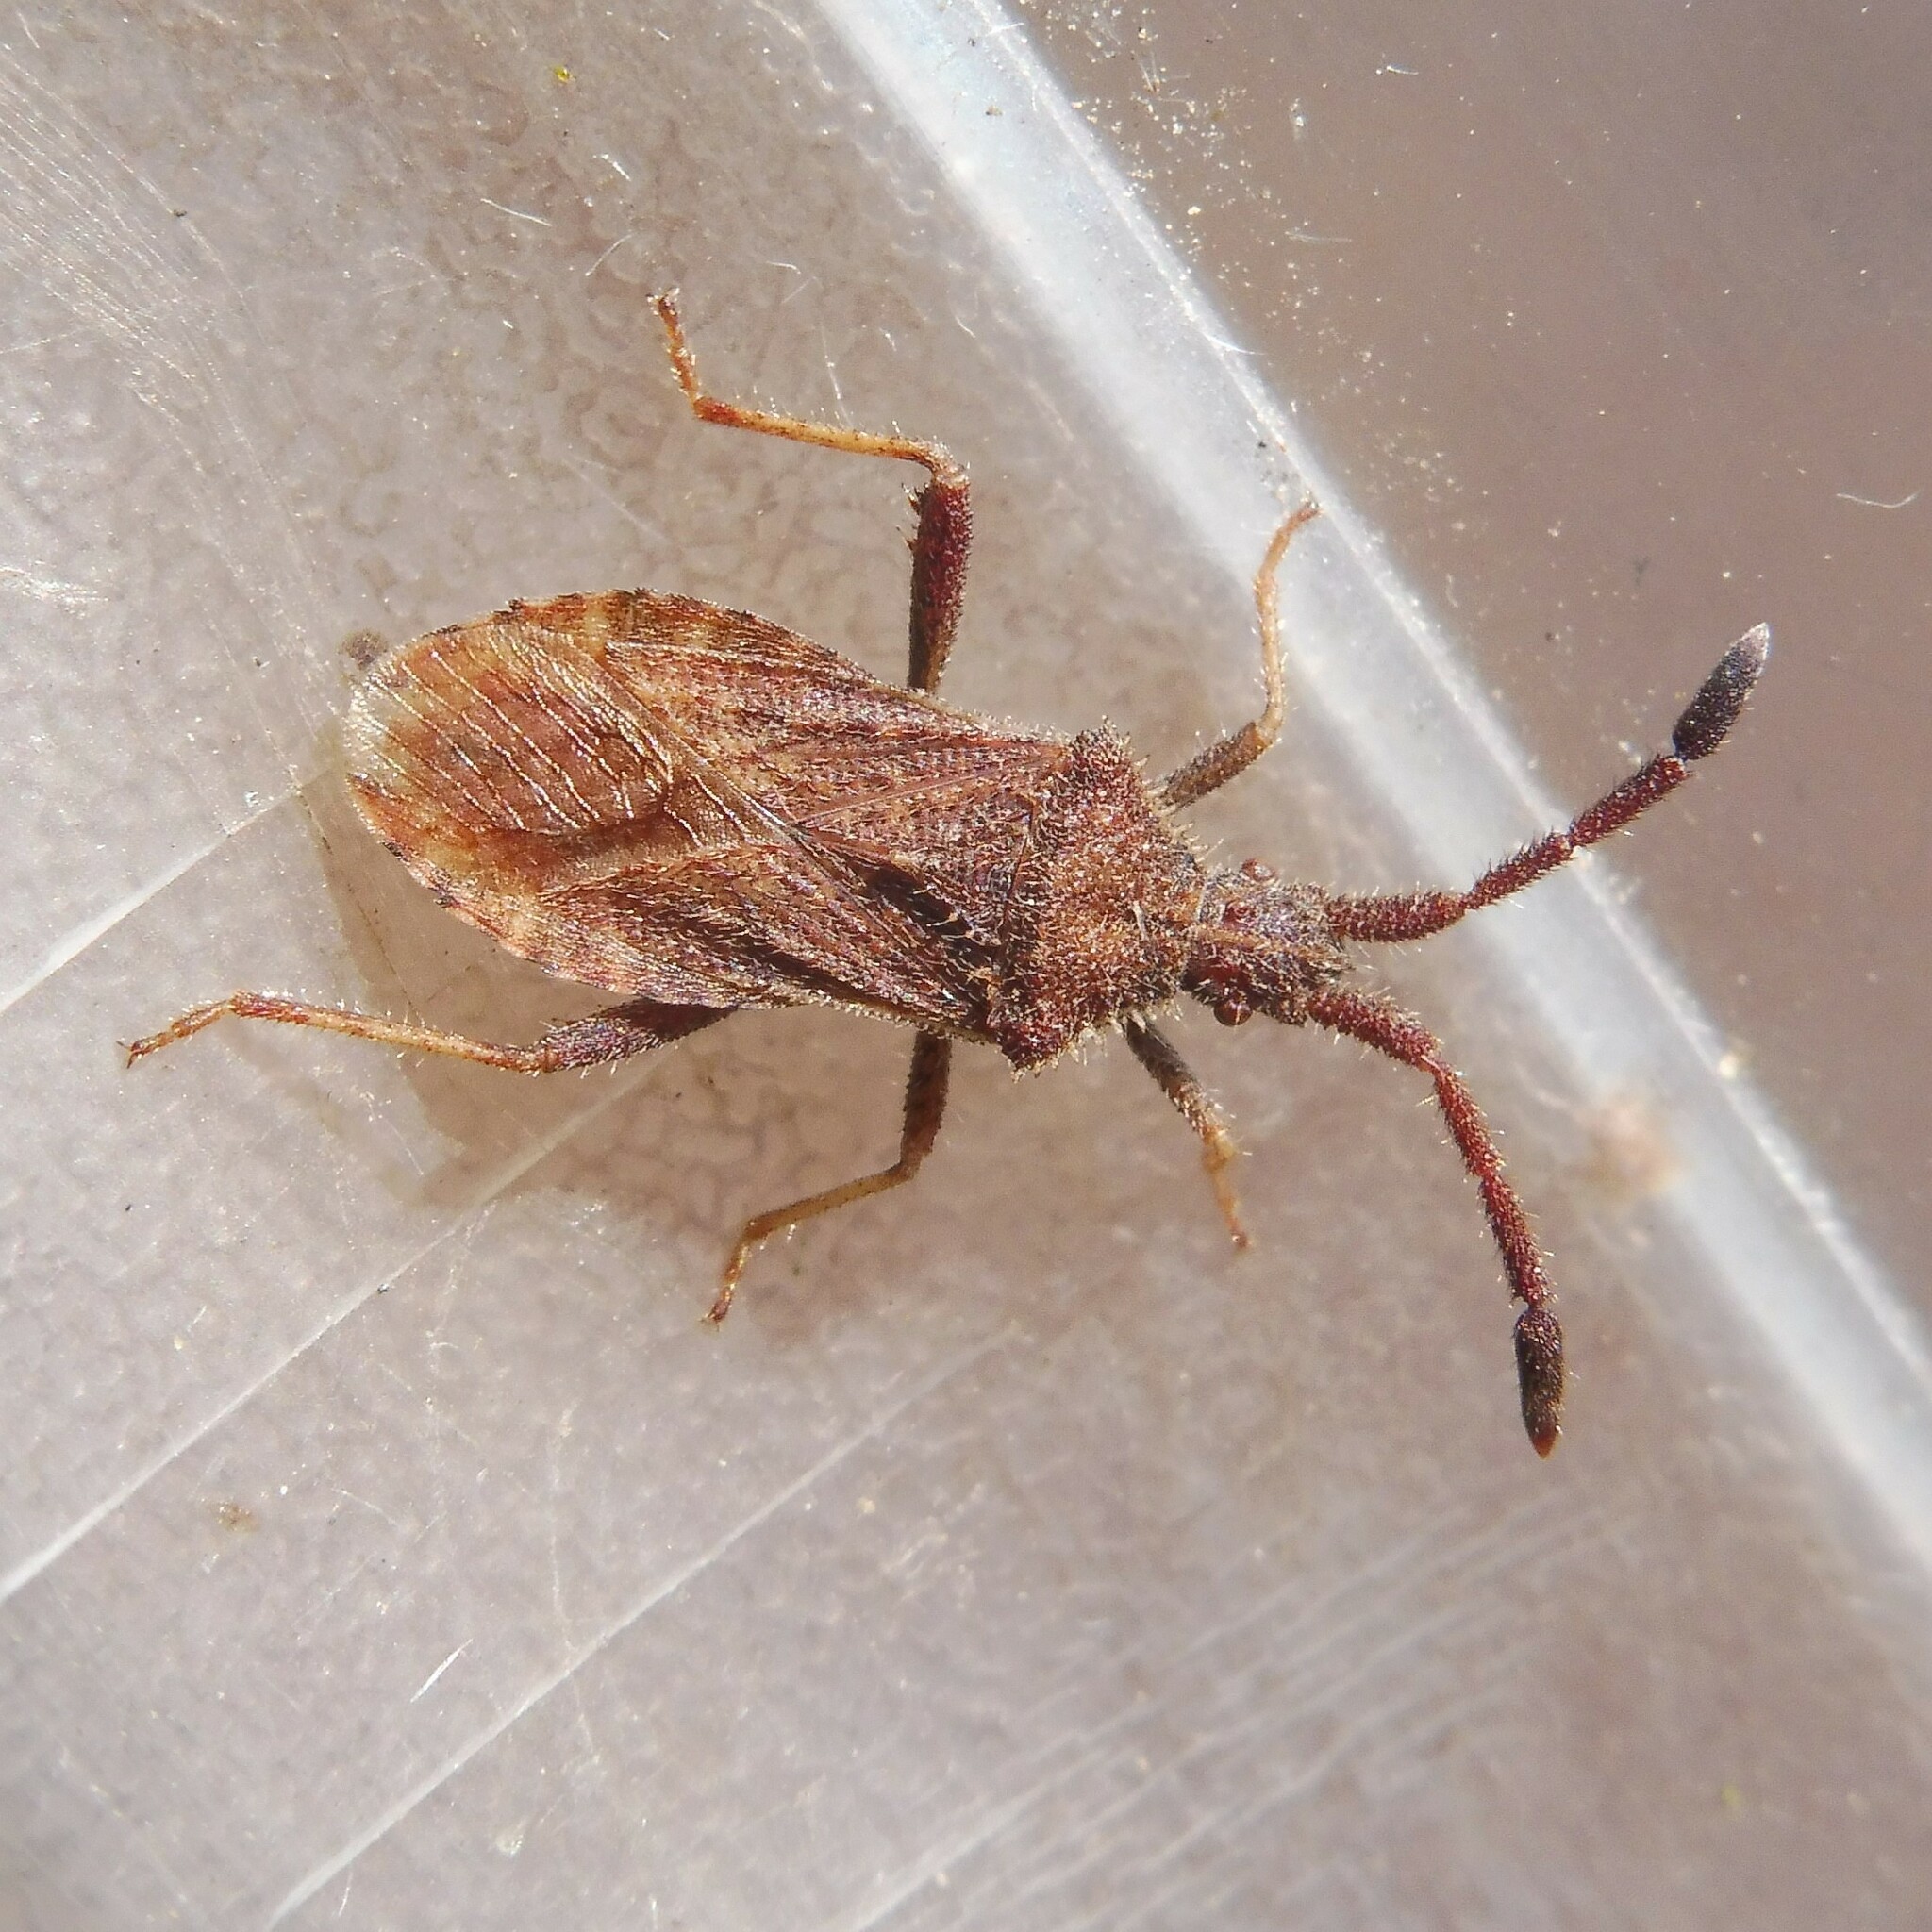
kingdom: Animalia
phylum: Arthropoda
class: Insecta
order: Hemiptera
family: Coreidae
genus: Coriomeris
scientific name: Coriomeris denticulatus
